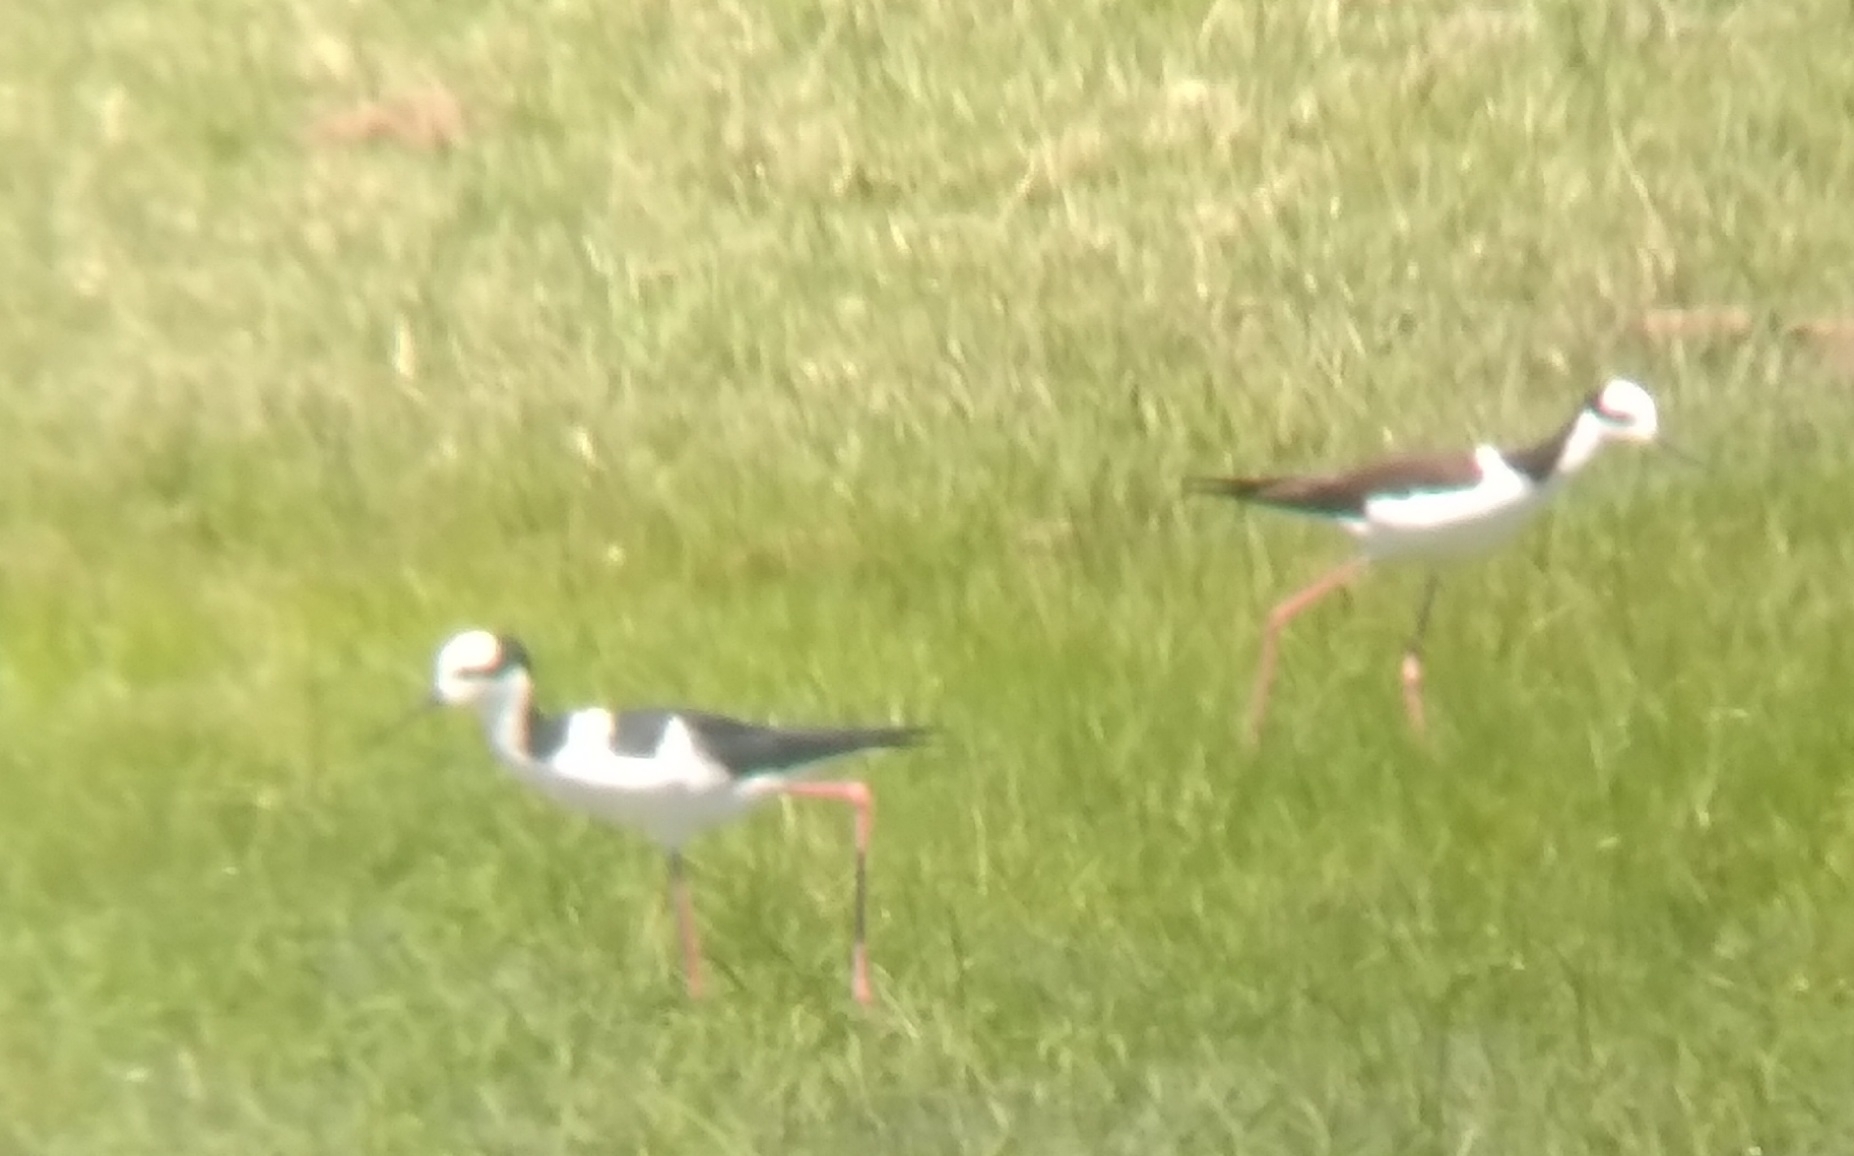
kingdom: Animalia
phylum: Chordata
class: Aves
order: Charadriiformes
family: Recurvirostridae
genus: Himantopus
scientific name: Himantopus mexicanus
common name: Black-necked stilt
